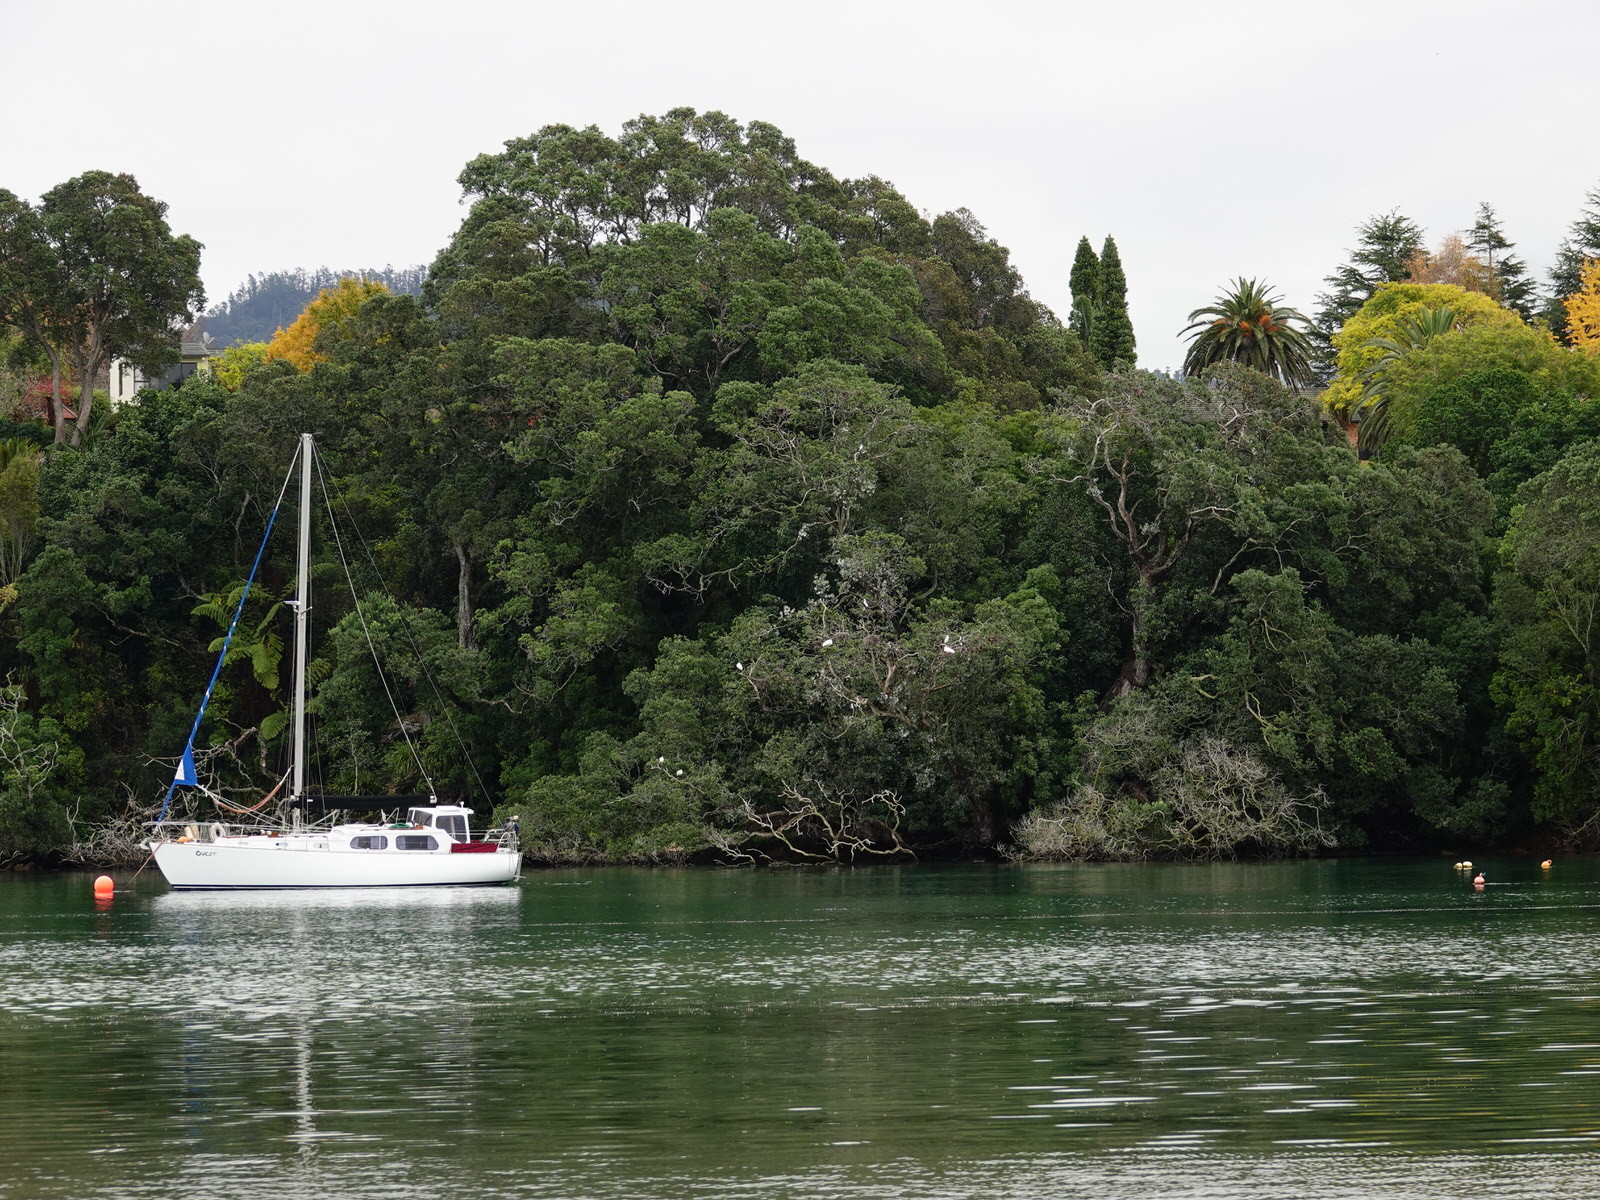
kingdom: Animalia
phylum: Chordata
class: Aves
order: Pelecaniformes
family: Threskiornithidae
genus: Platalea
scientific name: Platalea regia
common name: Royal spoonbill
